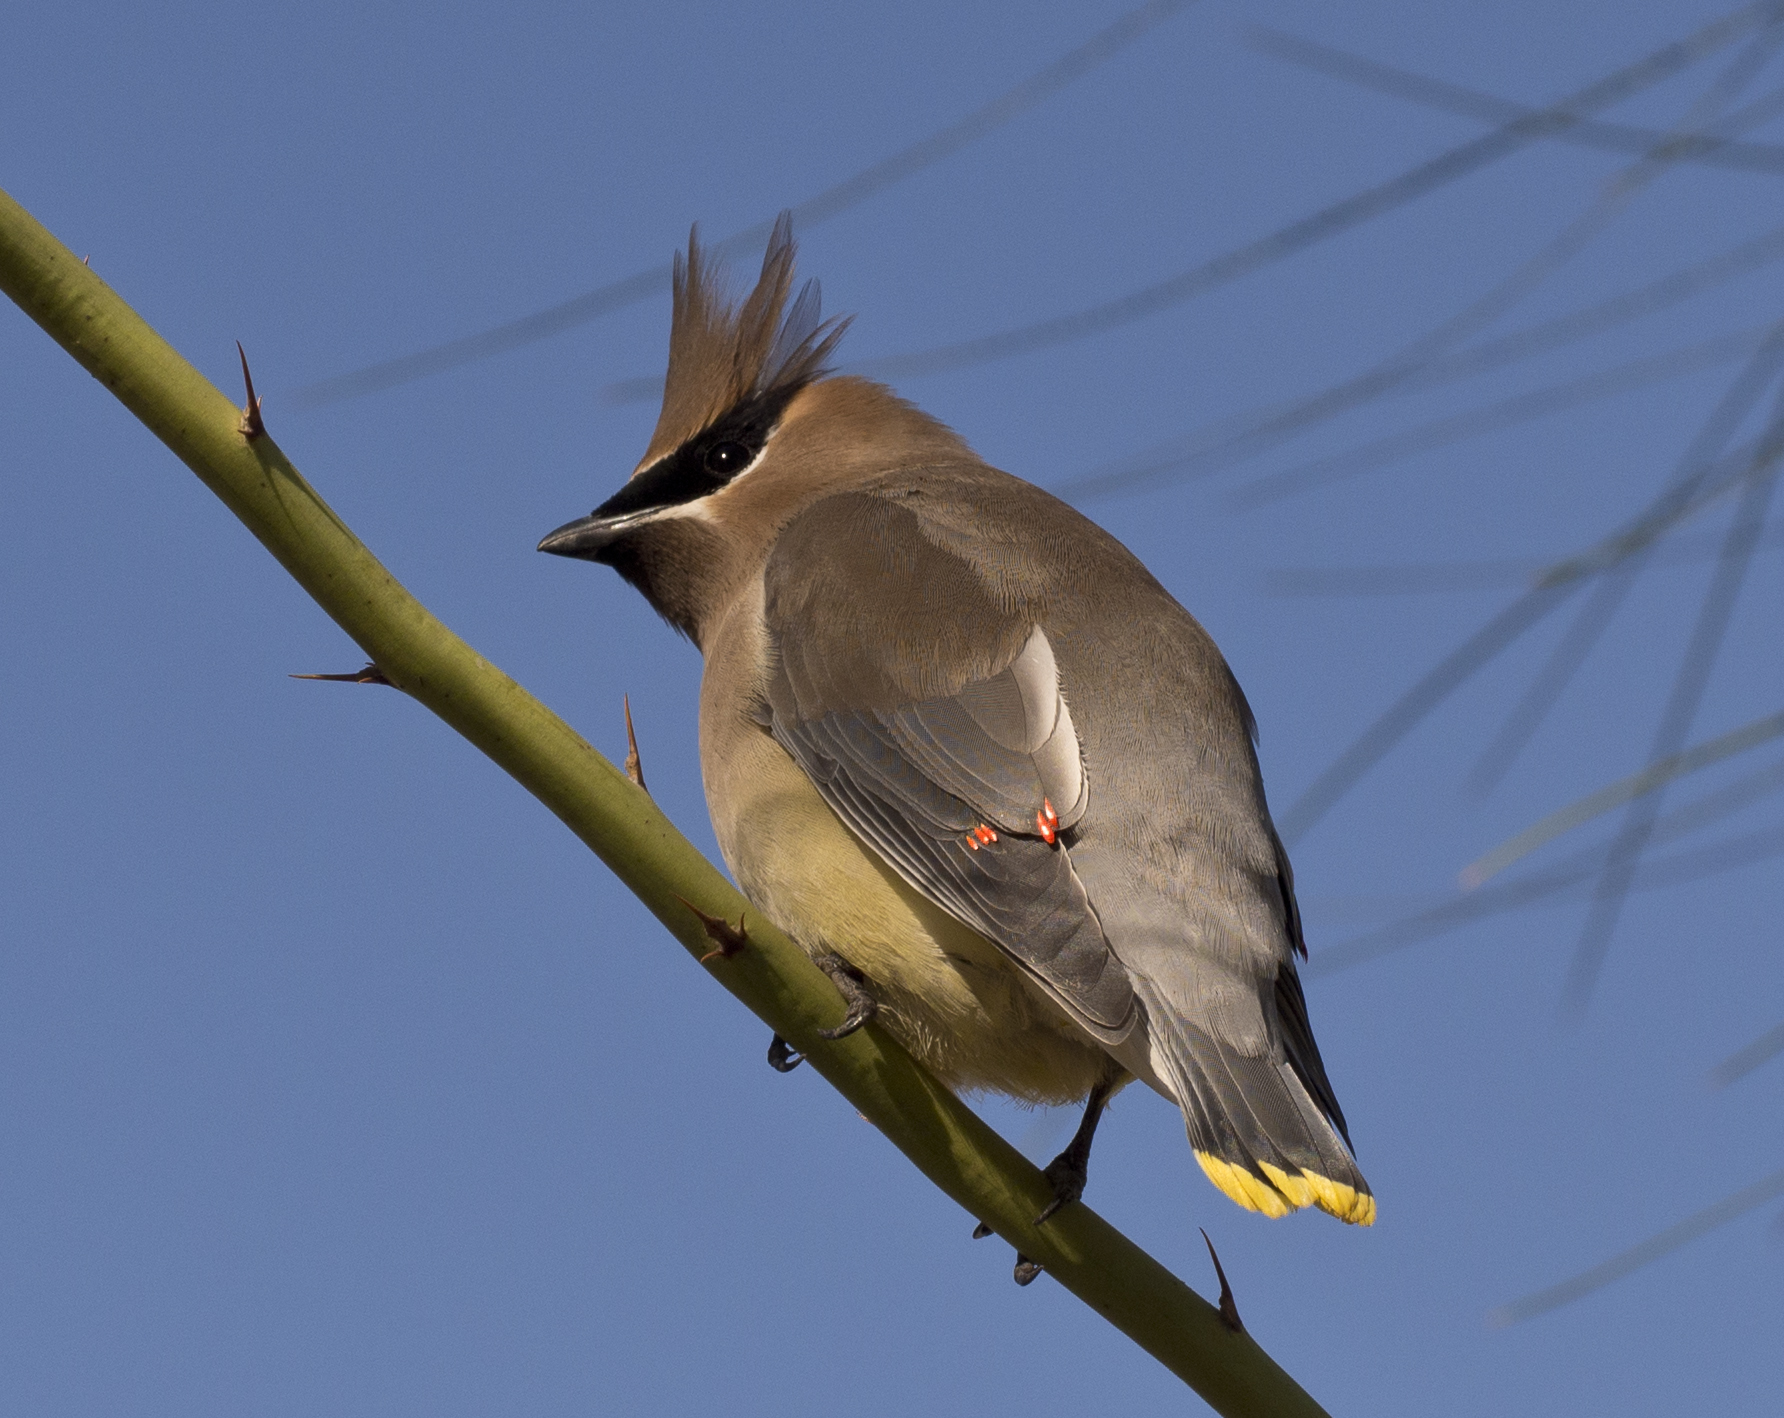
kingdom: Animalia
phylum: Chordata
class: Aves
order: Passeriformes
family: Bombycillidae
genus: Bombycilla
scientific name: Bombycilla cedrorum
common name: Cedar waxwing
